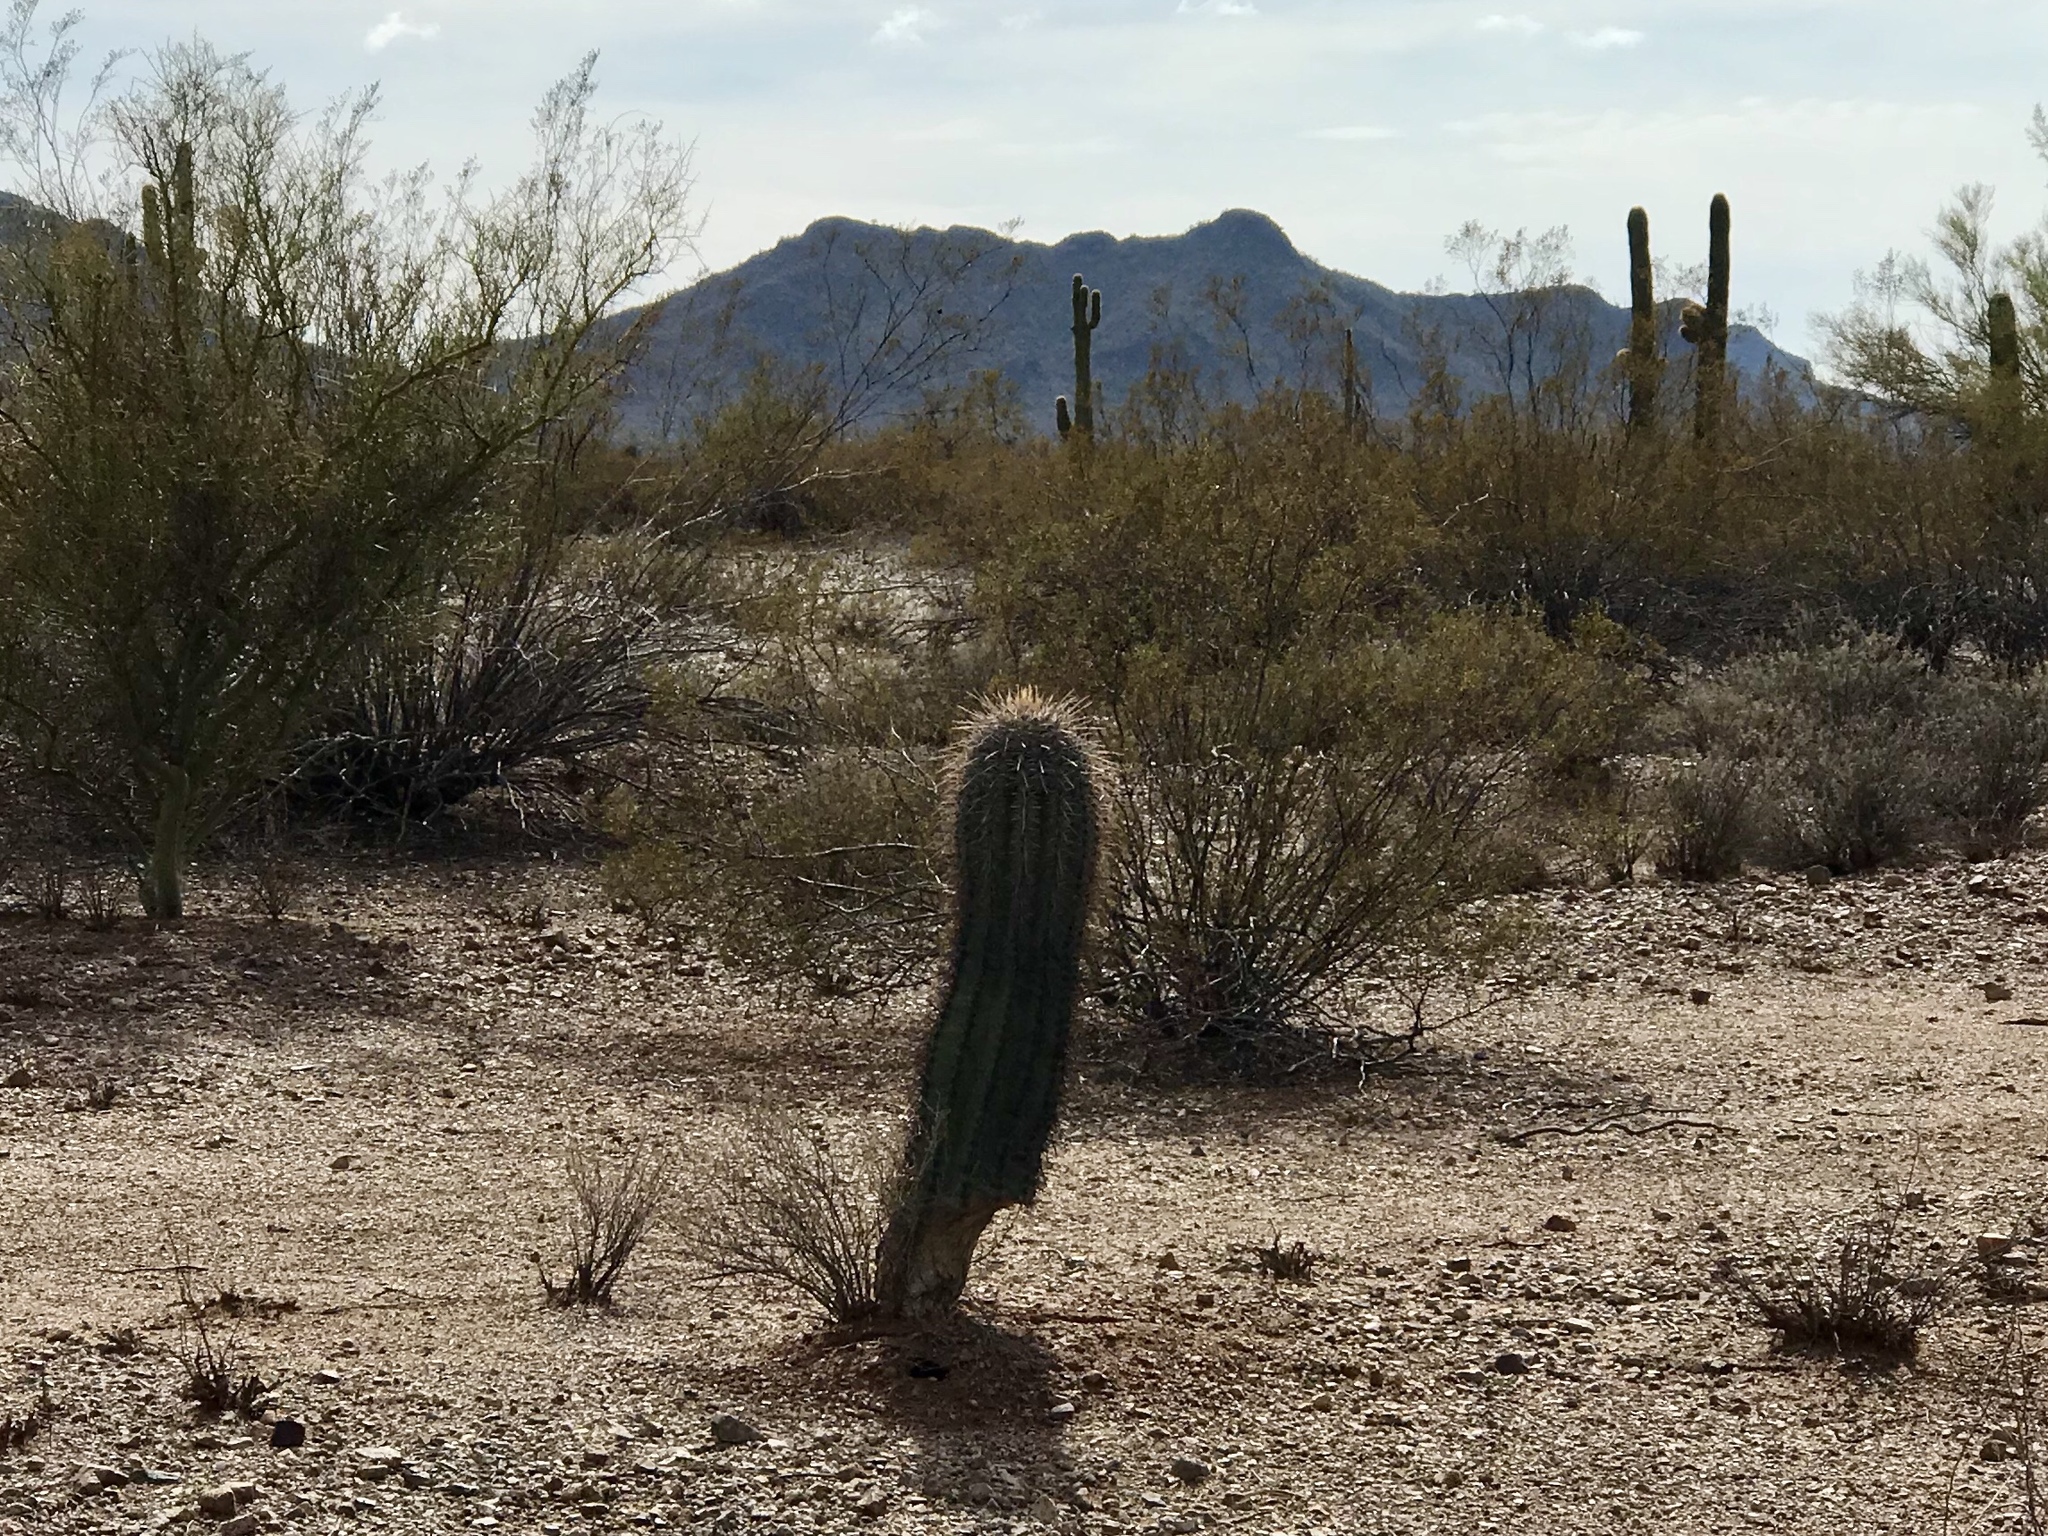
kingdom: Plantae
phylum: Tracheophyta
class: Magnoliopsida
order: Caryophyllales
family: Cactaceae
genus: Carnegiea
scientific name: Carnegiea gigantea
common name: Saguaro
